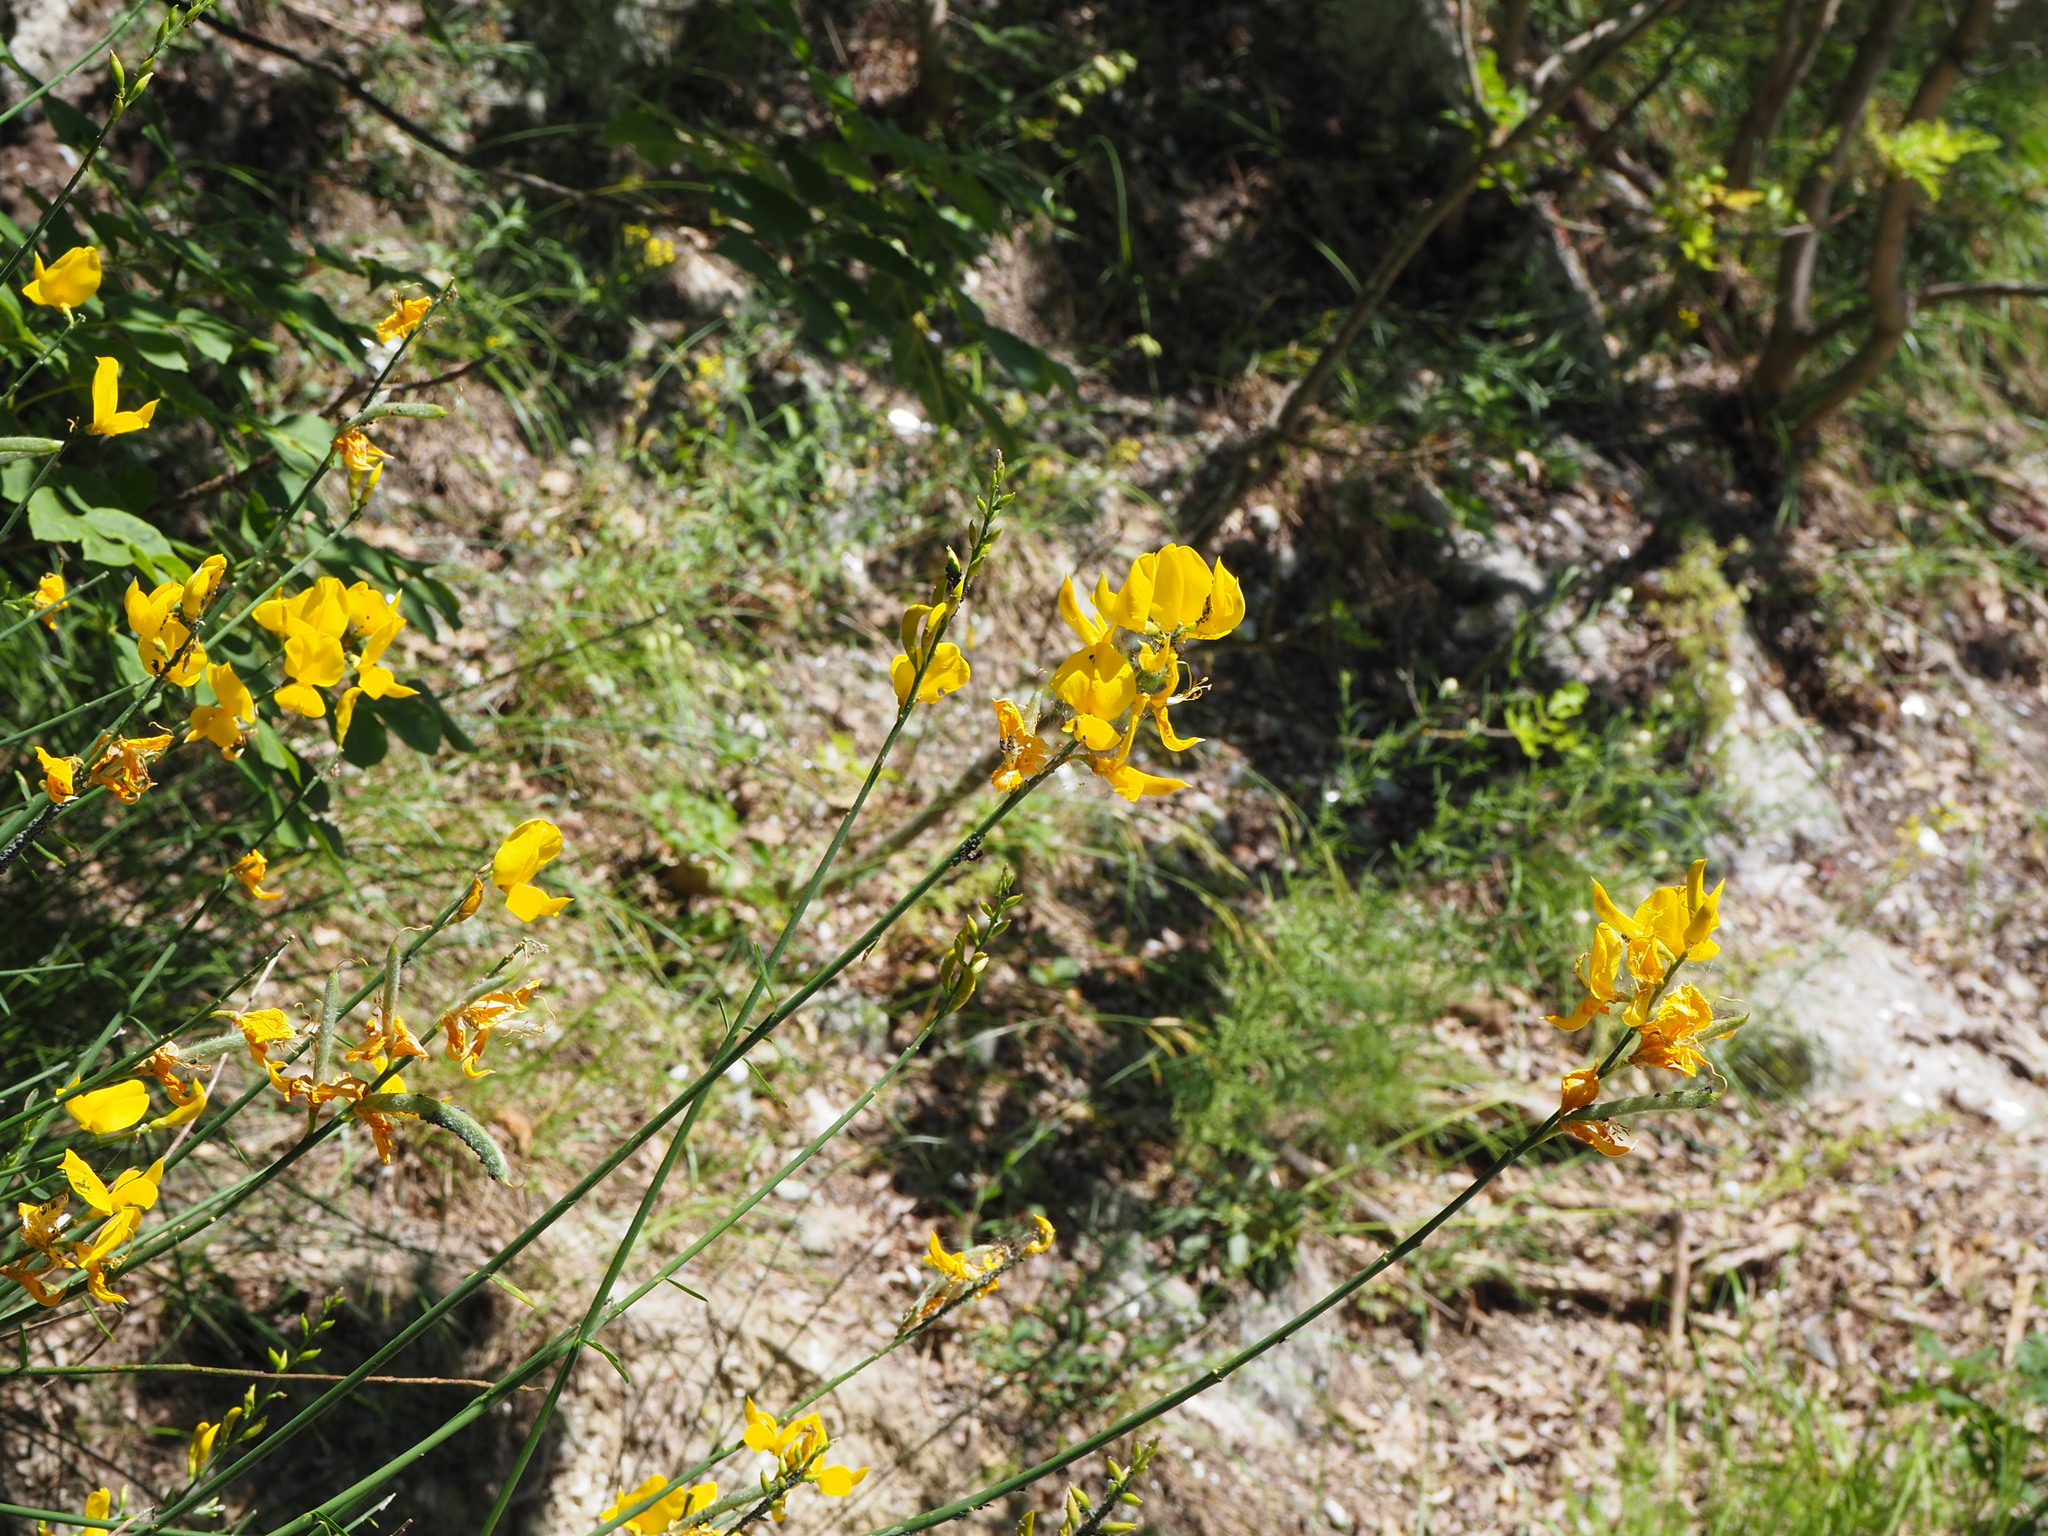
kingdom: Plantae
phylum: Tracheophyta
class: Magnoliopsida
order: Fabales
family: Fabaceae
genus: Spartium
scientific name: Spartium junceum
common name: Spanish broom
